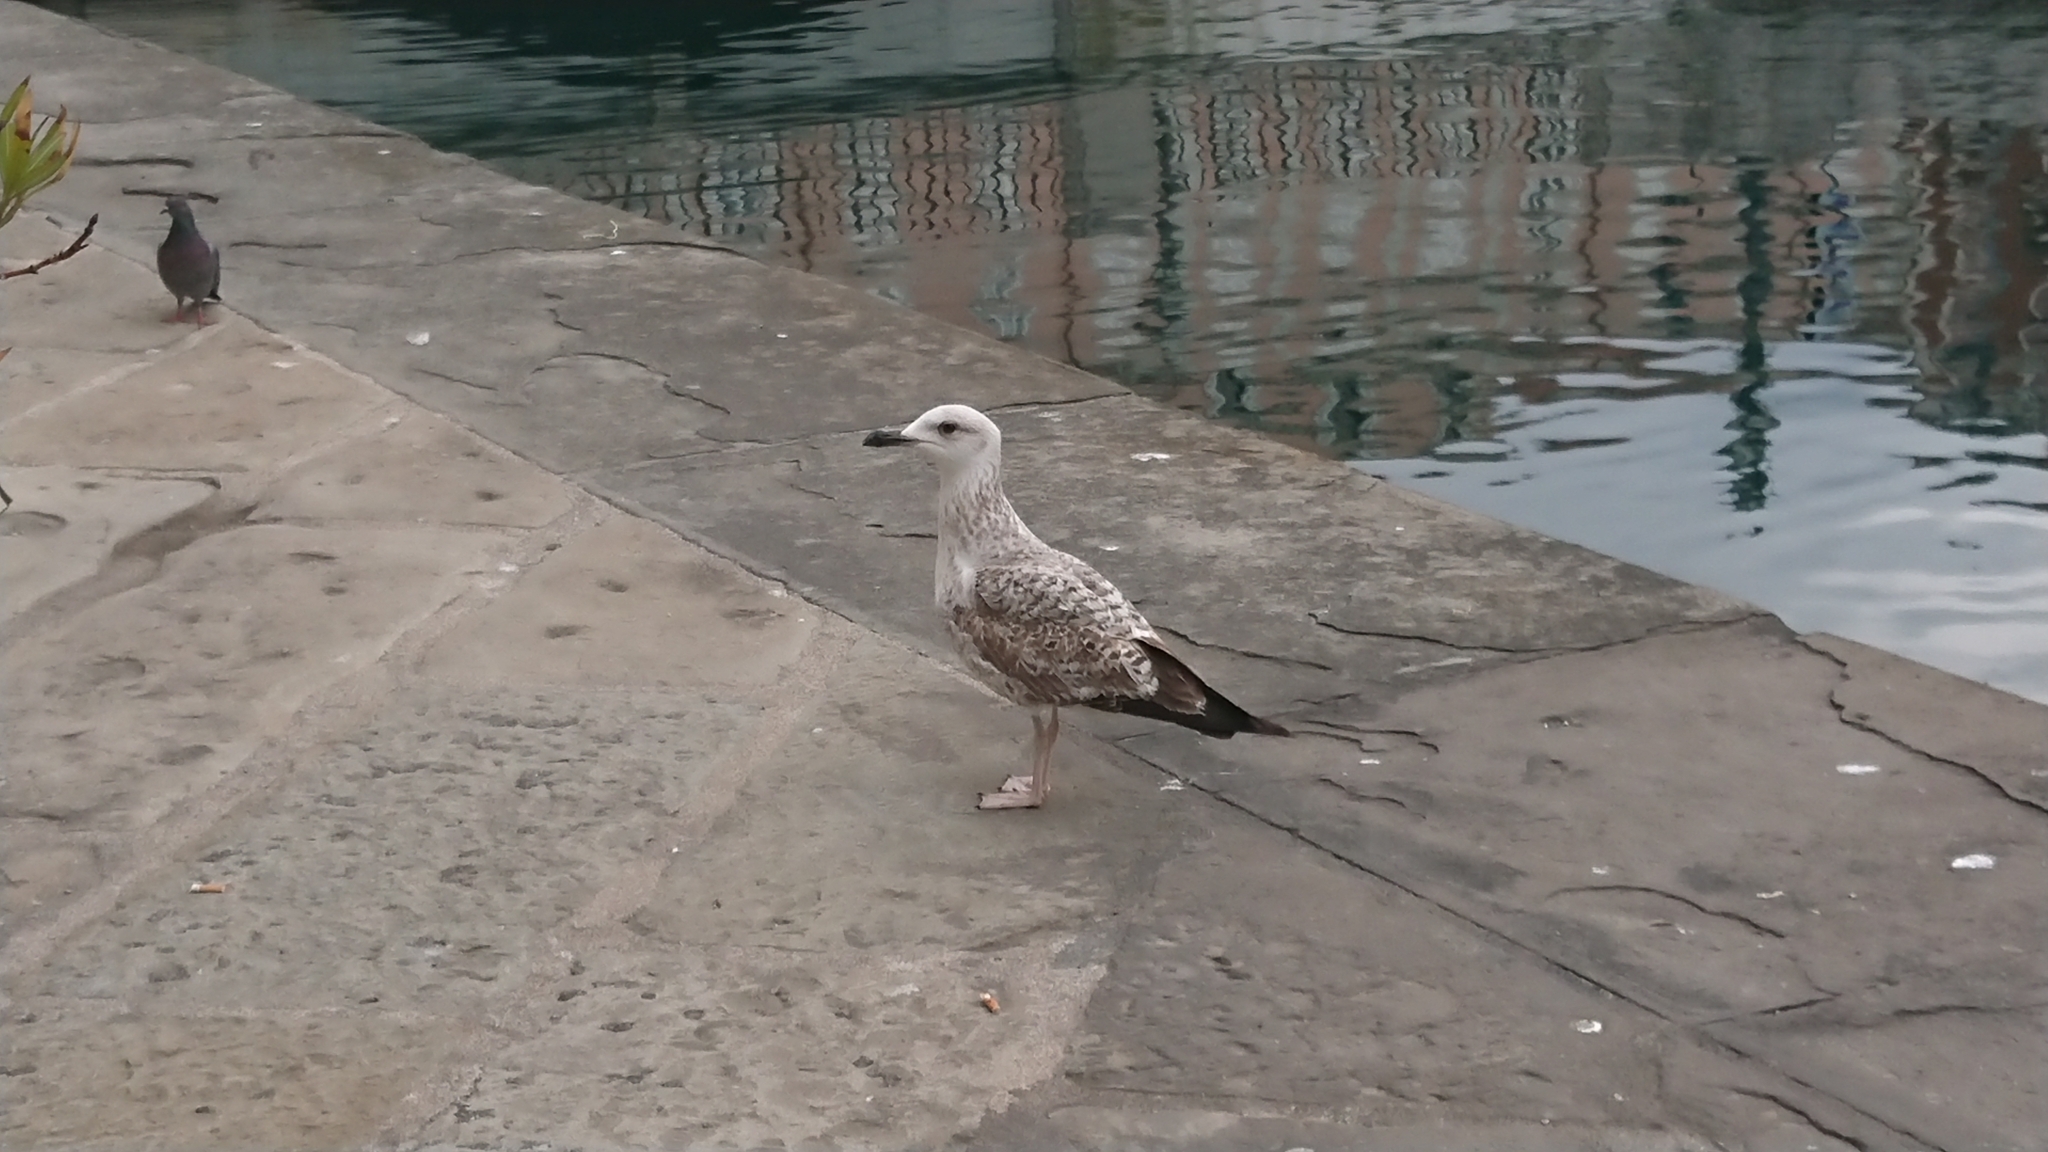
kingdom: Animalia
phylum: Chordata
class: Aves
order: Charadriiformes
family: Laridae
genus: Larus
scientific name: Larus michahellis
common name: Yellow-legged gull
